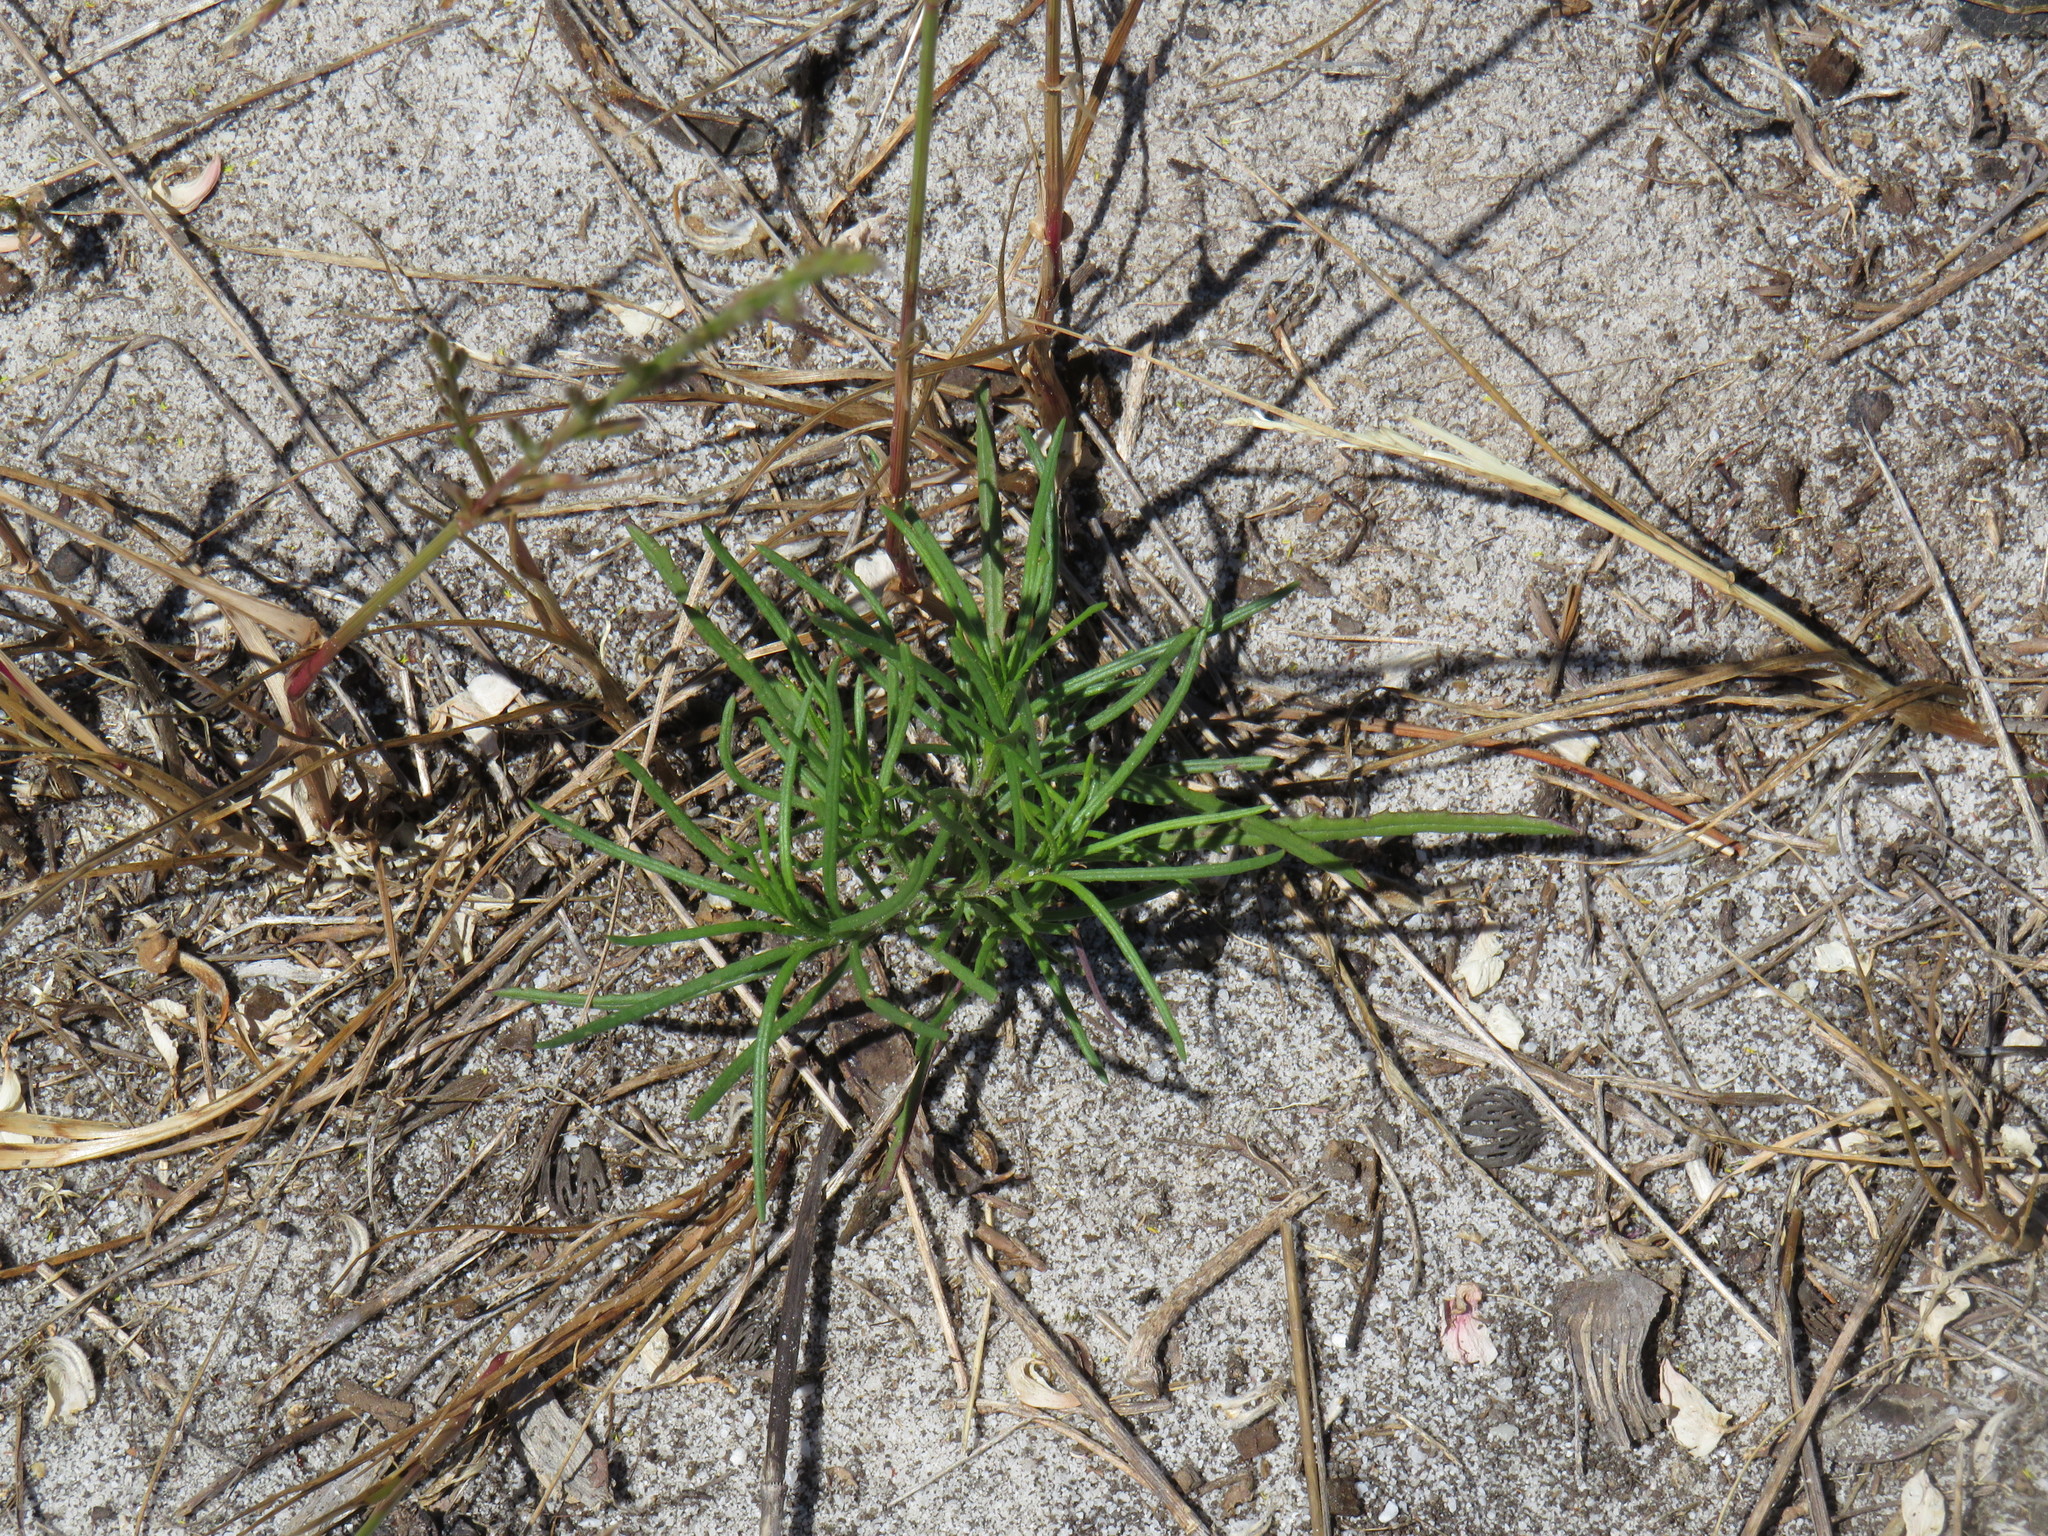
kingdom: Plantae
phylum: Tracheophyta
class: Magnoliopsida
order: Asterales
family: Asteraceae
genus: Senecio
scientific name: Senecio burchellii
